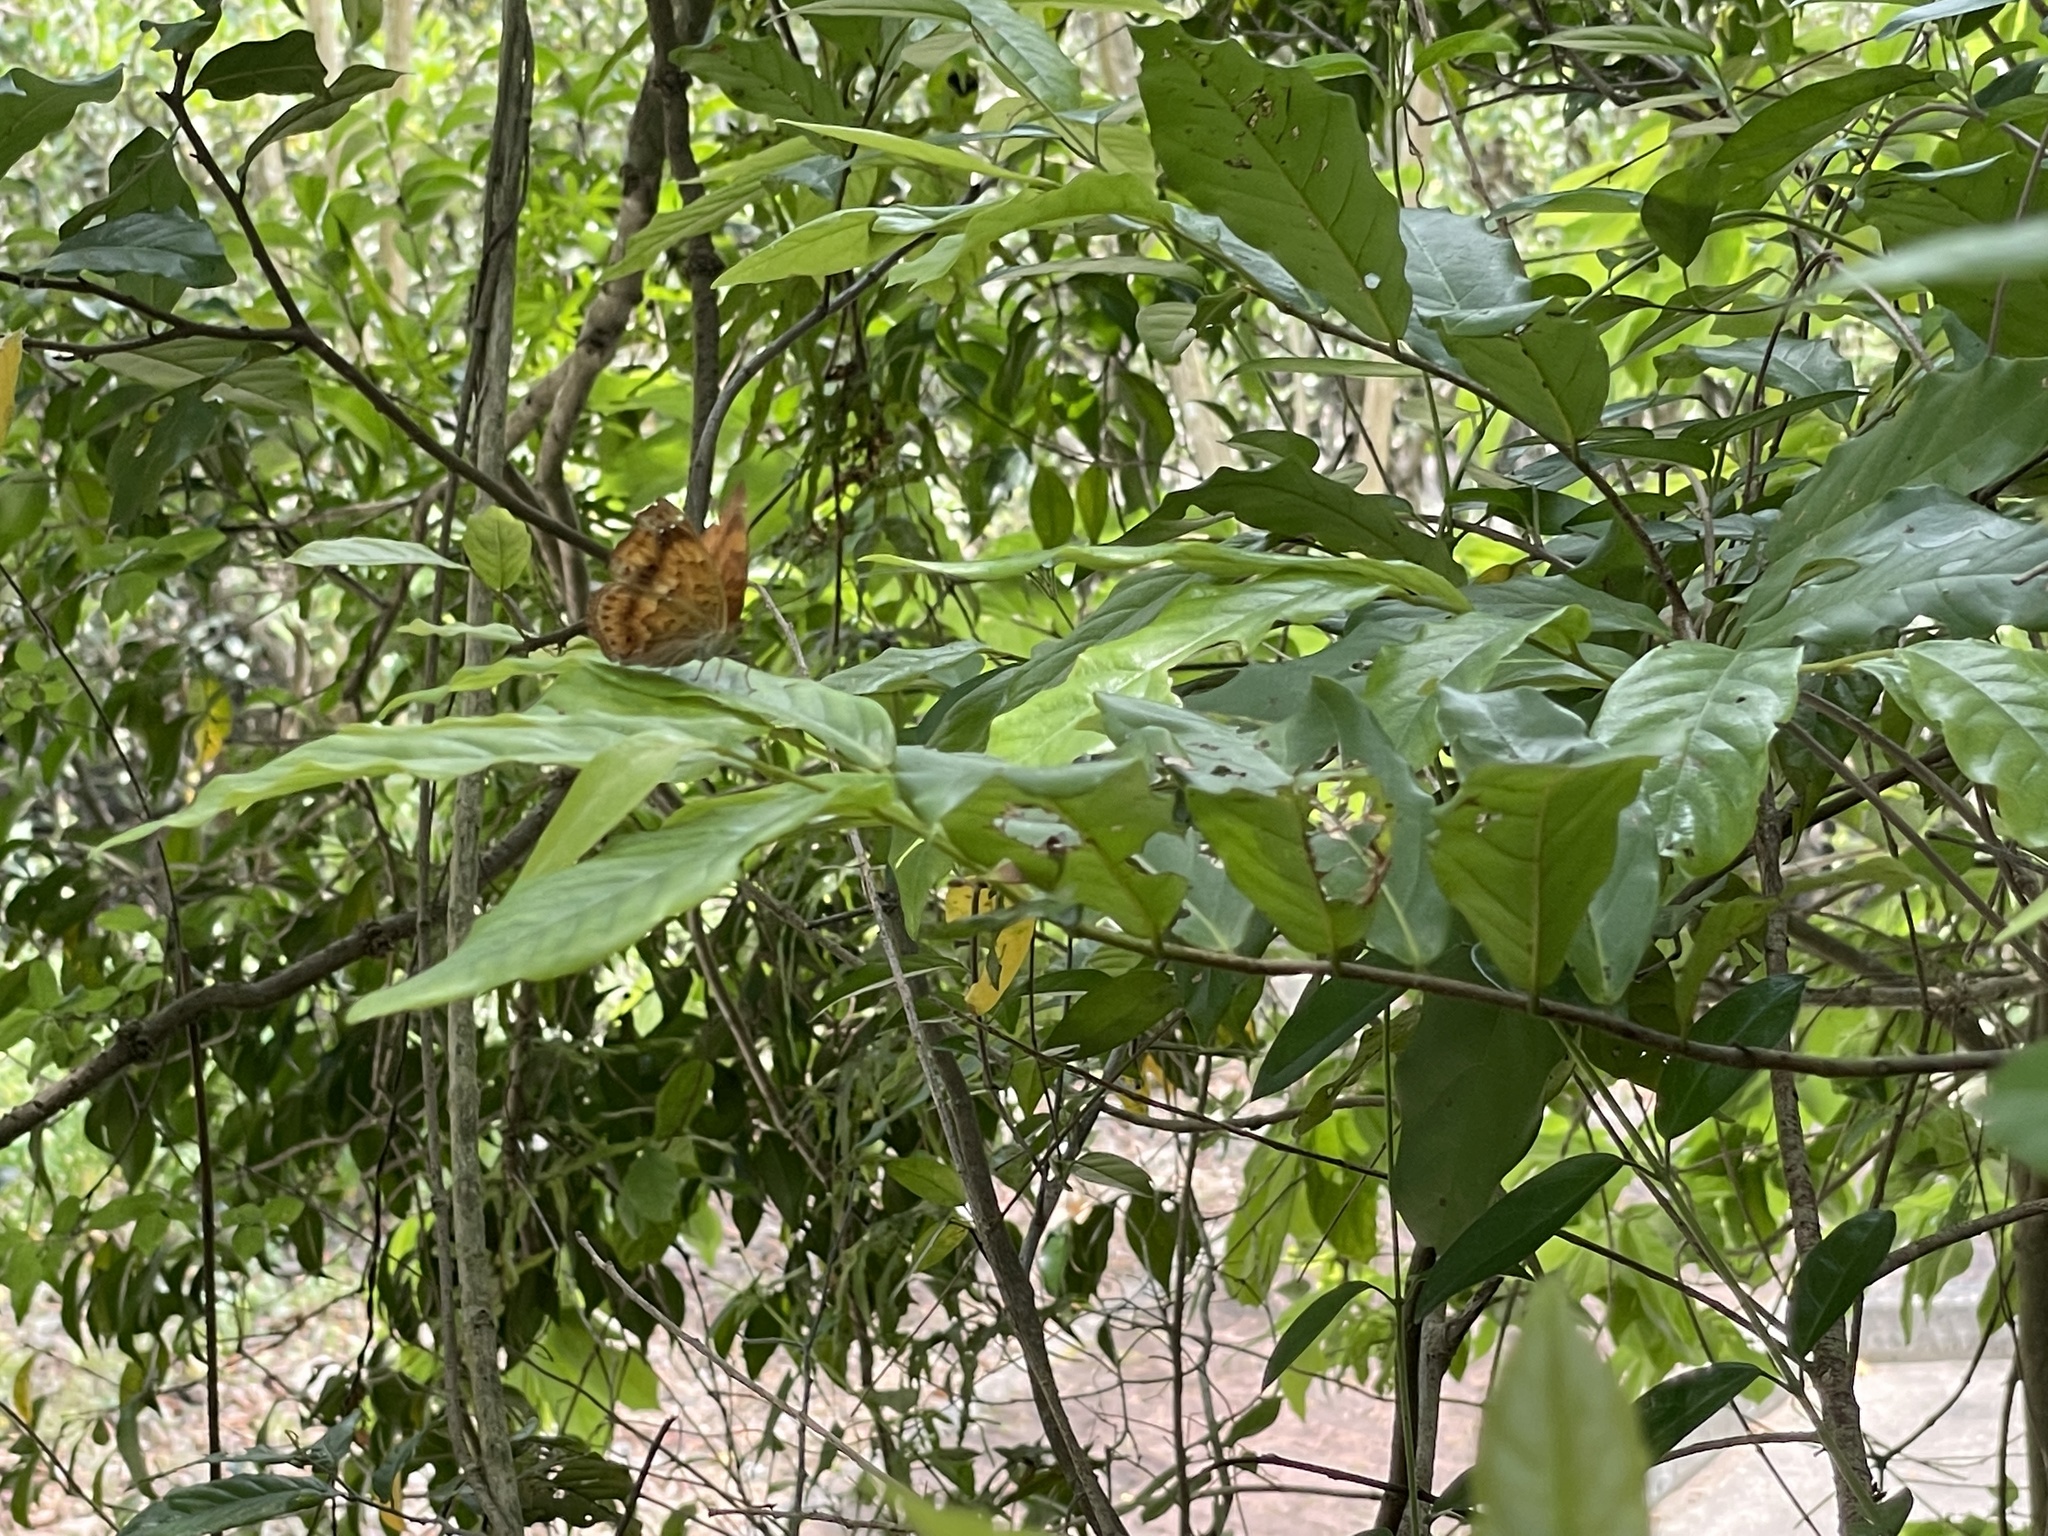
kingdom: Animalia
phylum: Arthropoda
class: Insecta
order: Lepidoptera
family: Nymphalidae
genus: Apatura
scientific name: Apatura Rohana spec
